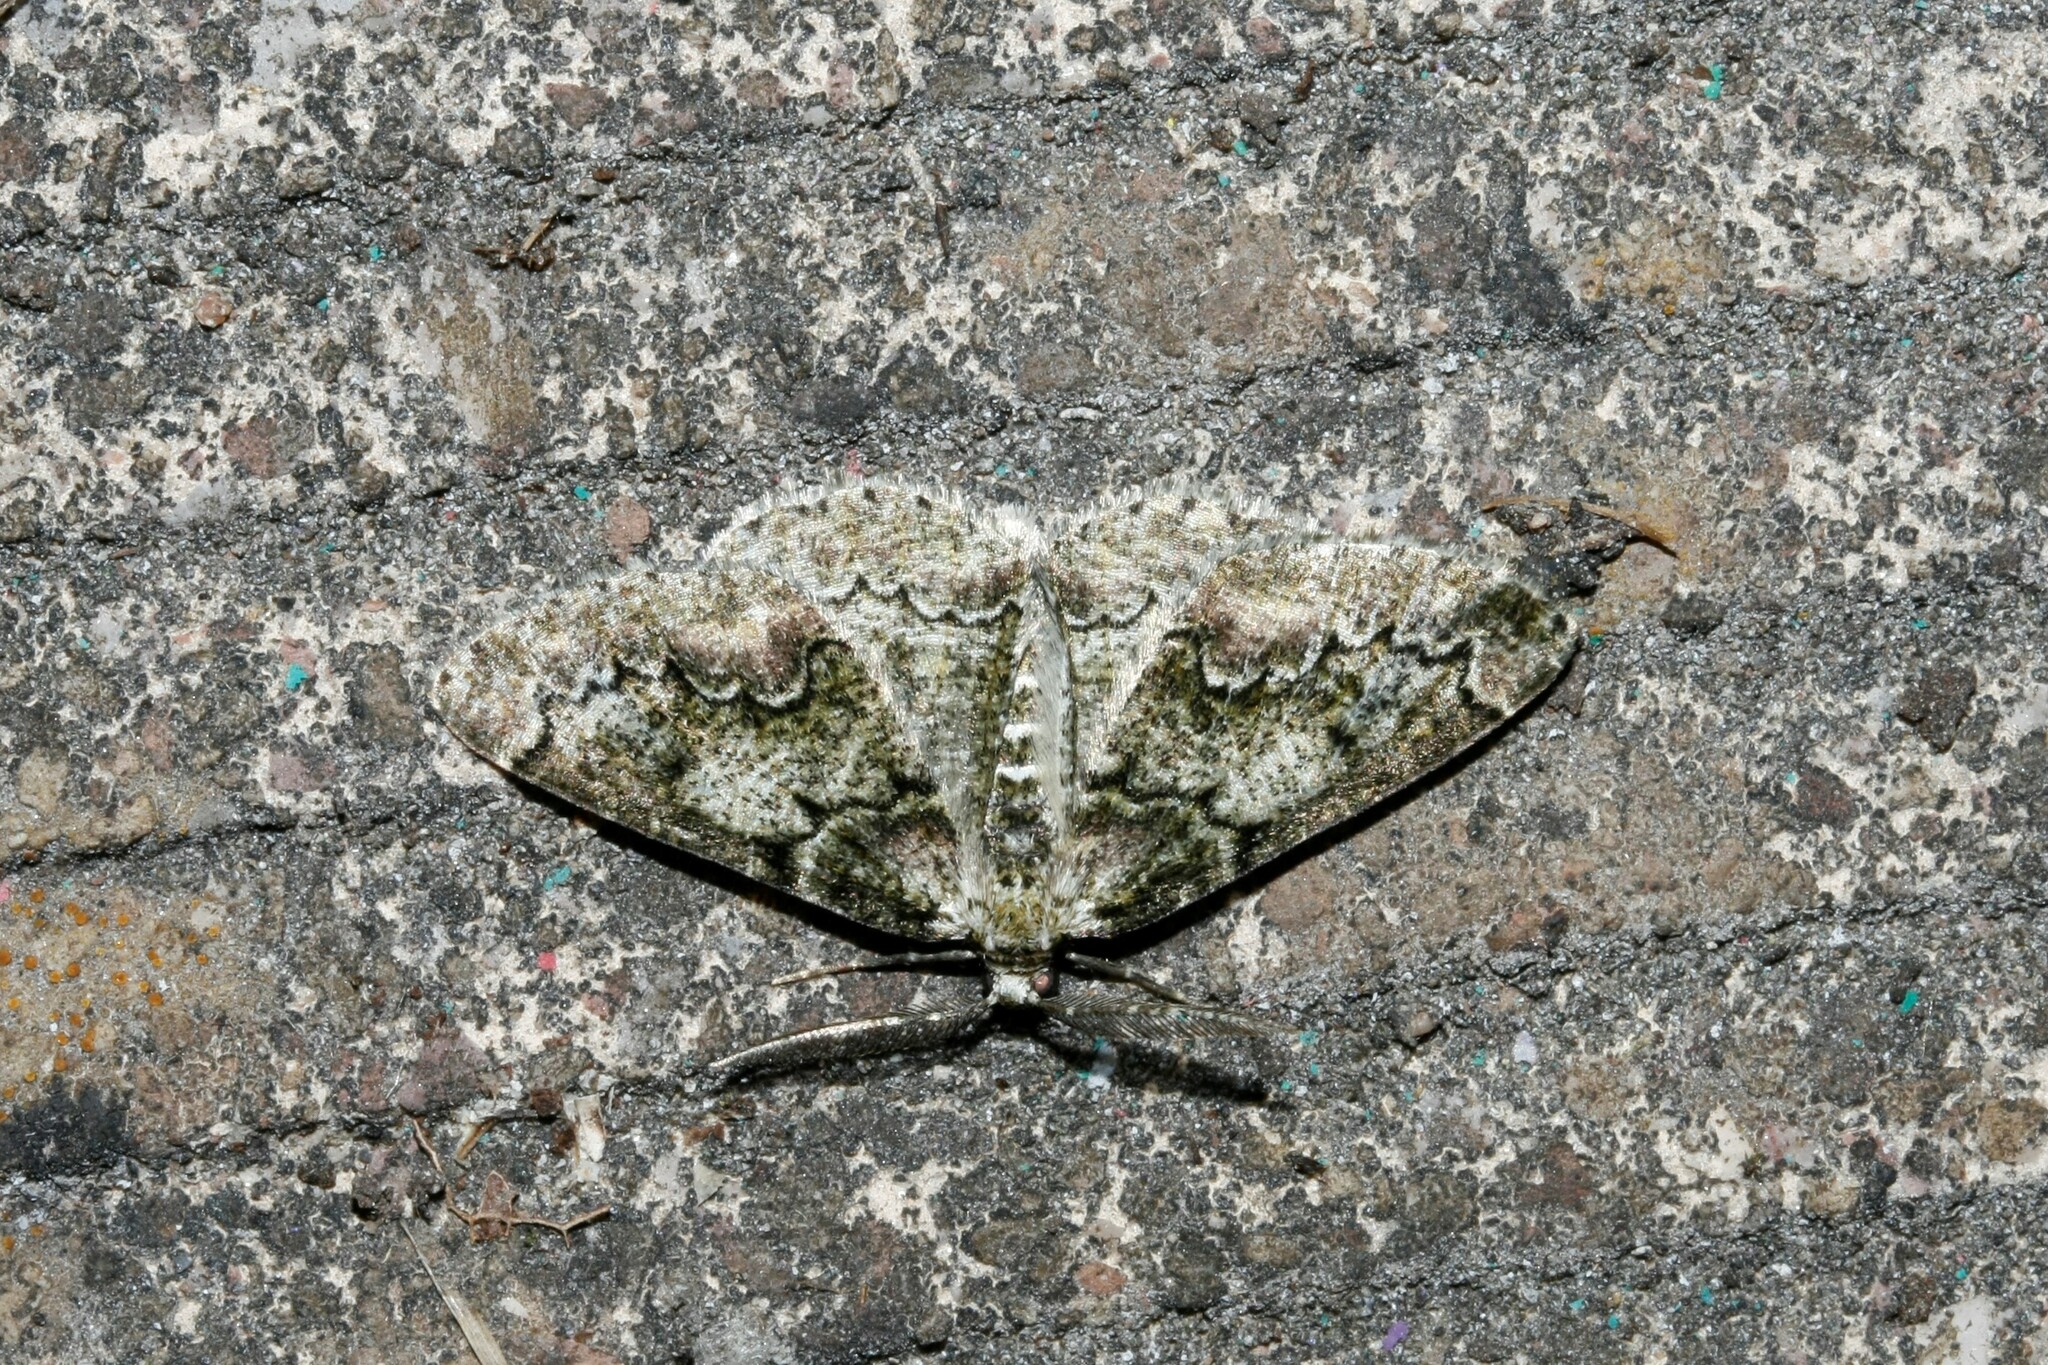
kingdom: Animalia
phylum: Arthropoda
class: Insecta
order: Lepidoptera
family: Geometridae
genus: Cleorodes
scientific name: Cleorodes lichenaria
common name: Brussels lace
